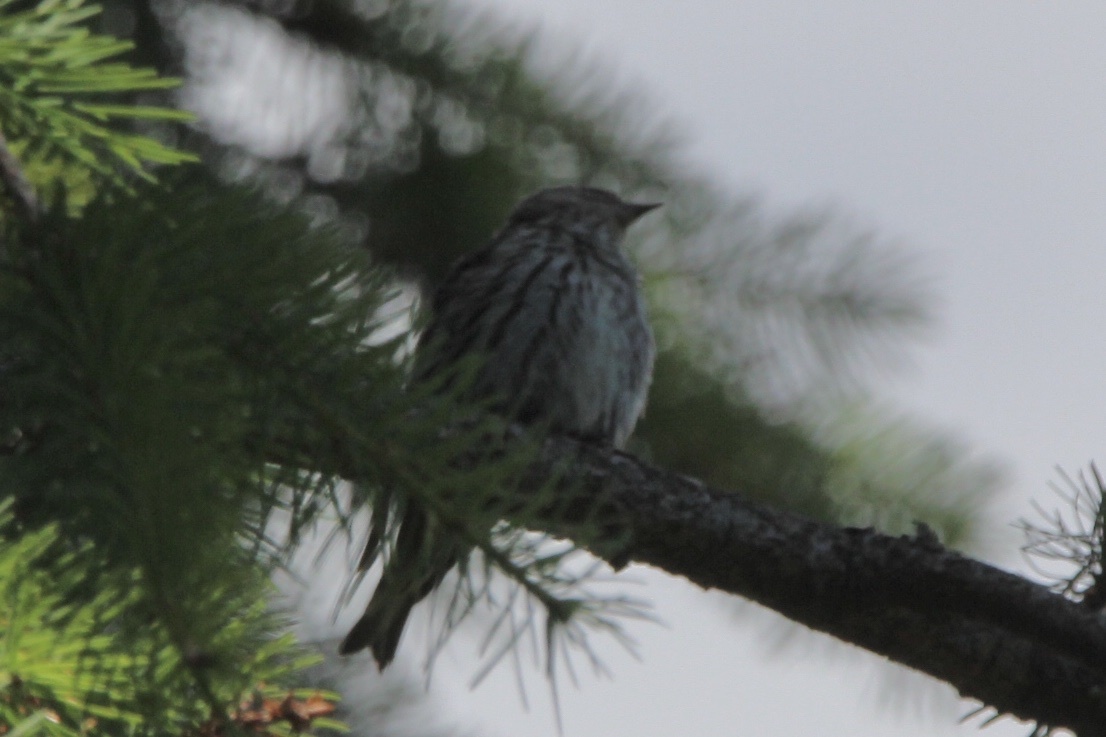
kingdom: Animalia
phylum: Chordata
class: Aves
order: Passeriformes
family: Fringillidae
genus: Spinus
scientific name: Spinus pinus
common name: Pine siskin
